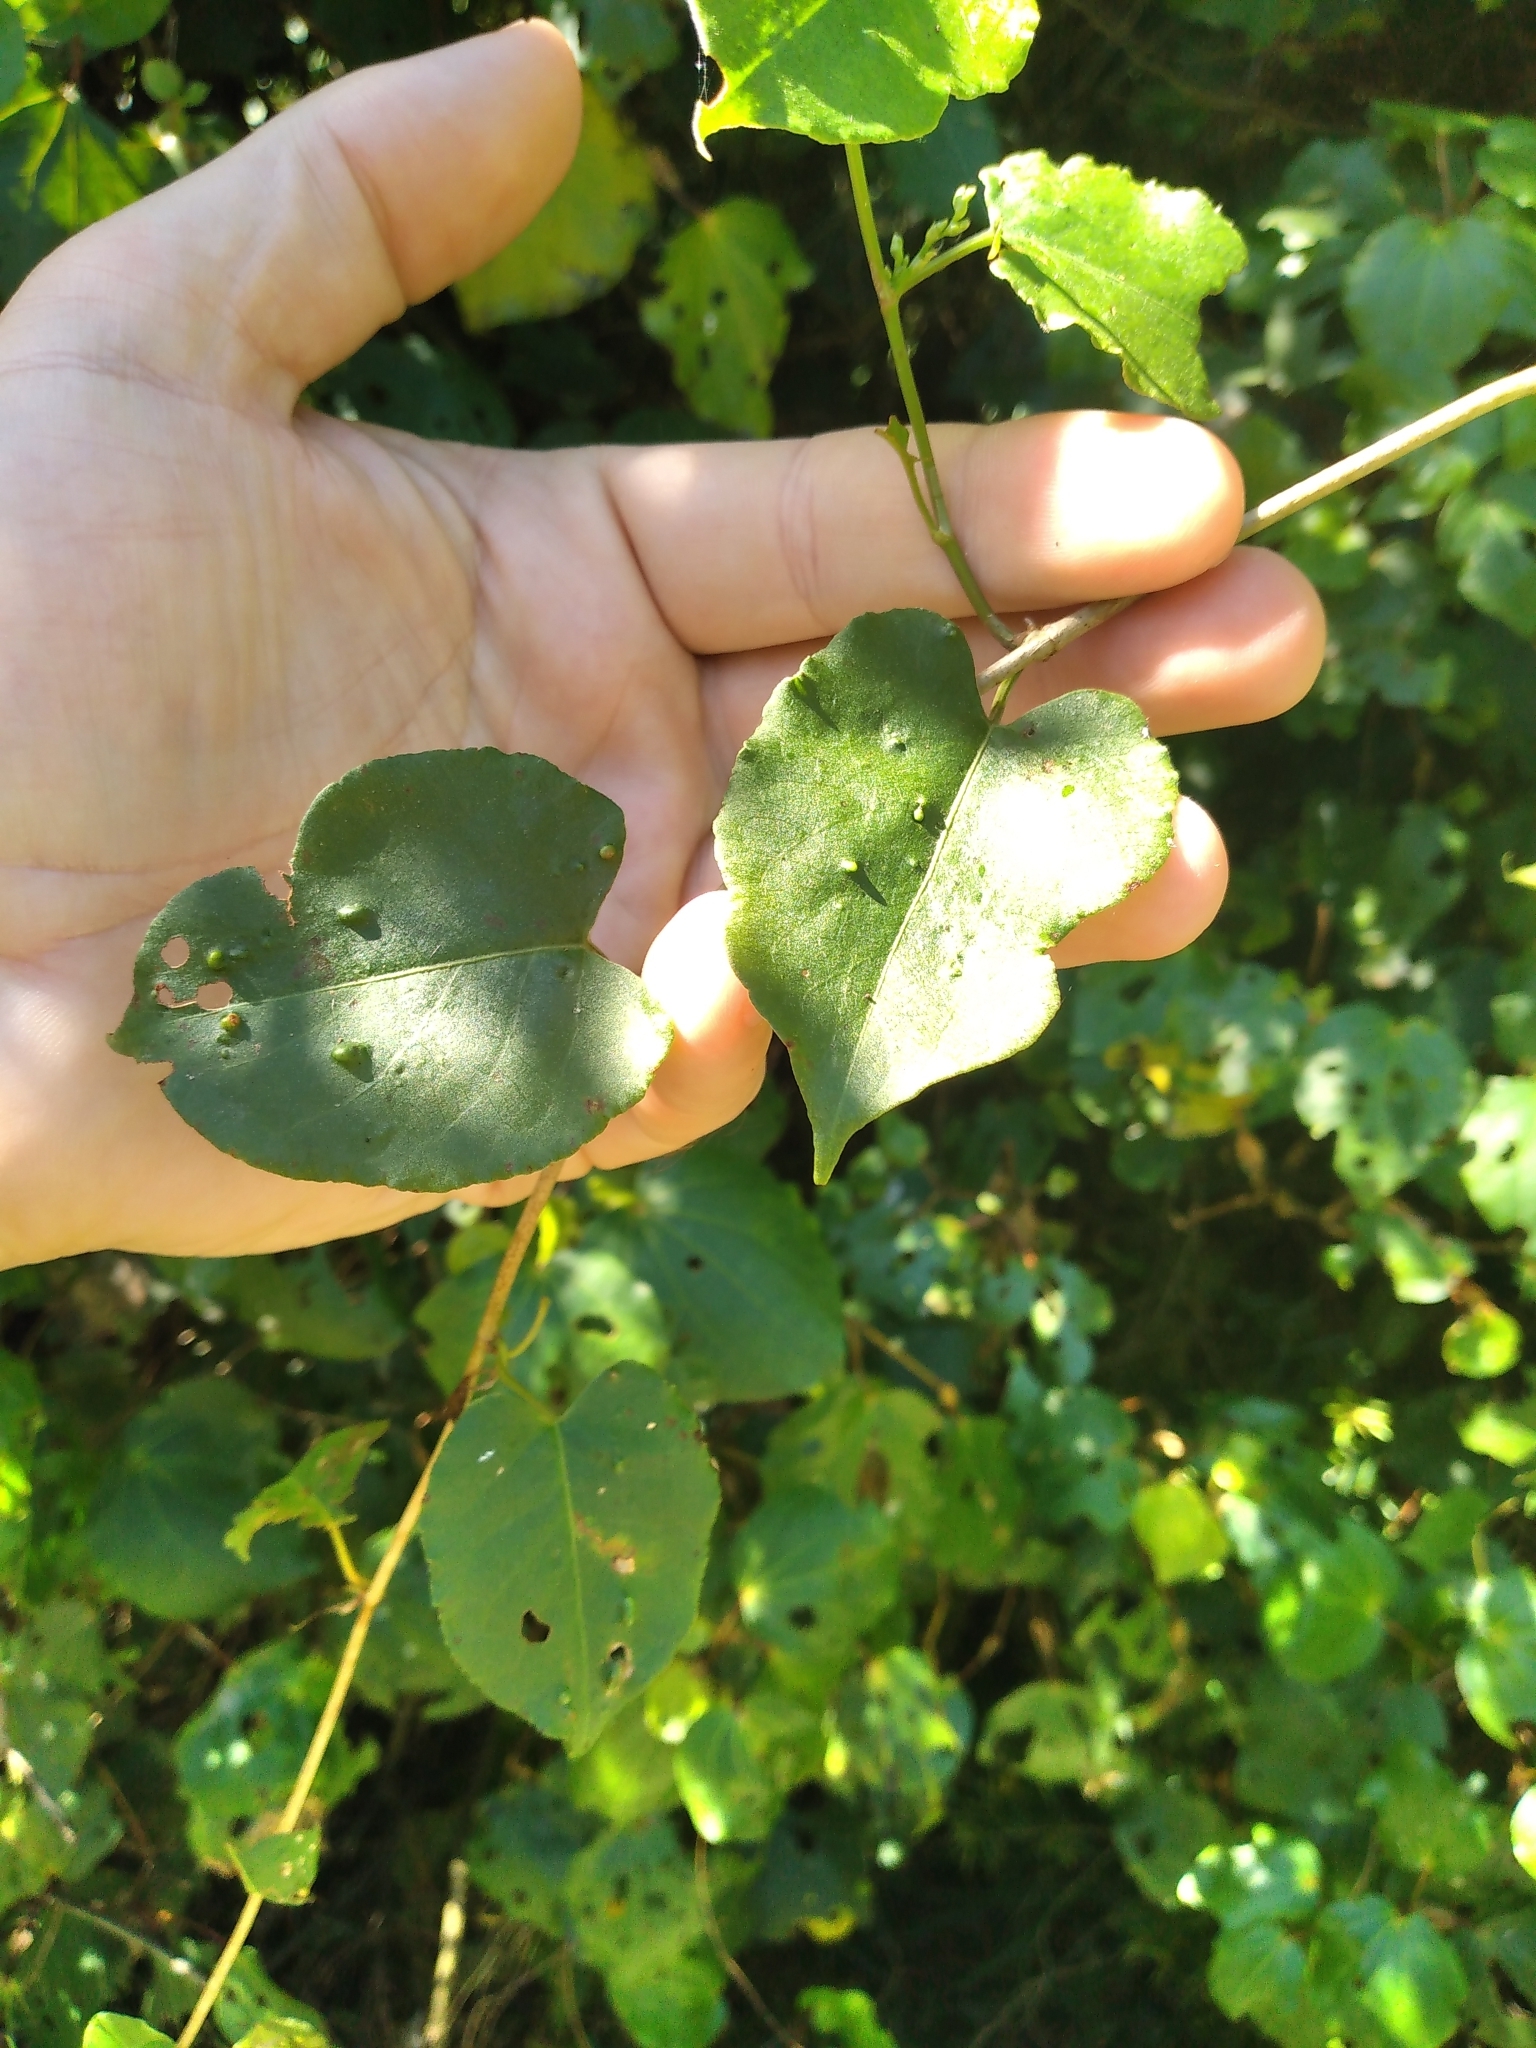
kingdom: Plantae
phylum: Tracheophyta
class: Magnoliopsida
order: Caryophyllales
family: Polygonaceae
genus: Muehlenbeckia
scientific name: Muehlenbeckia australis
